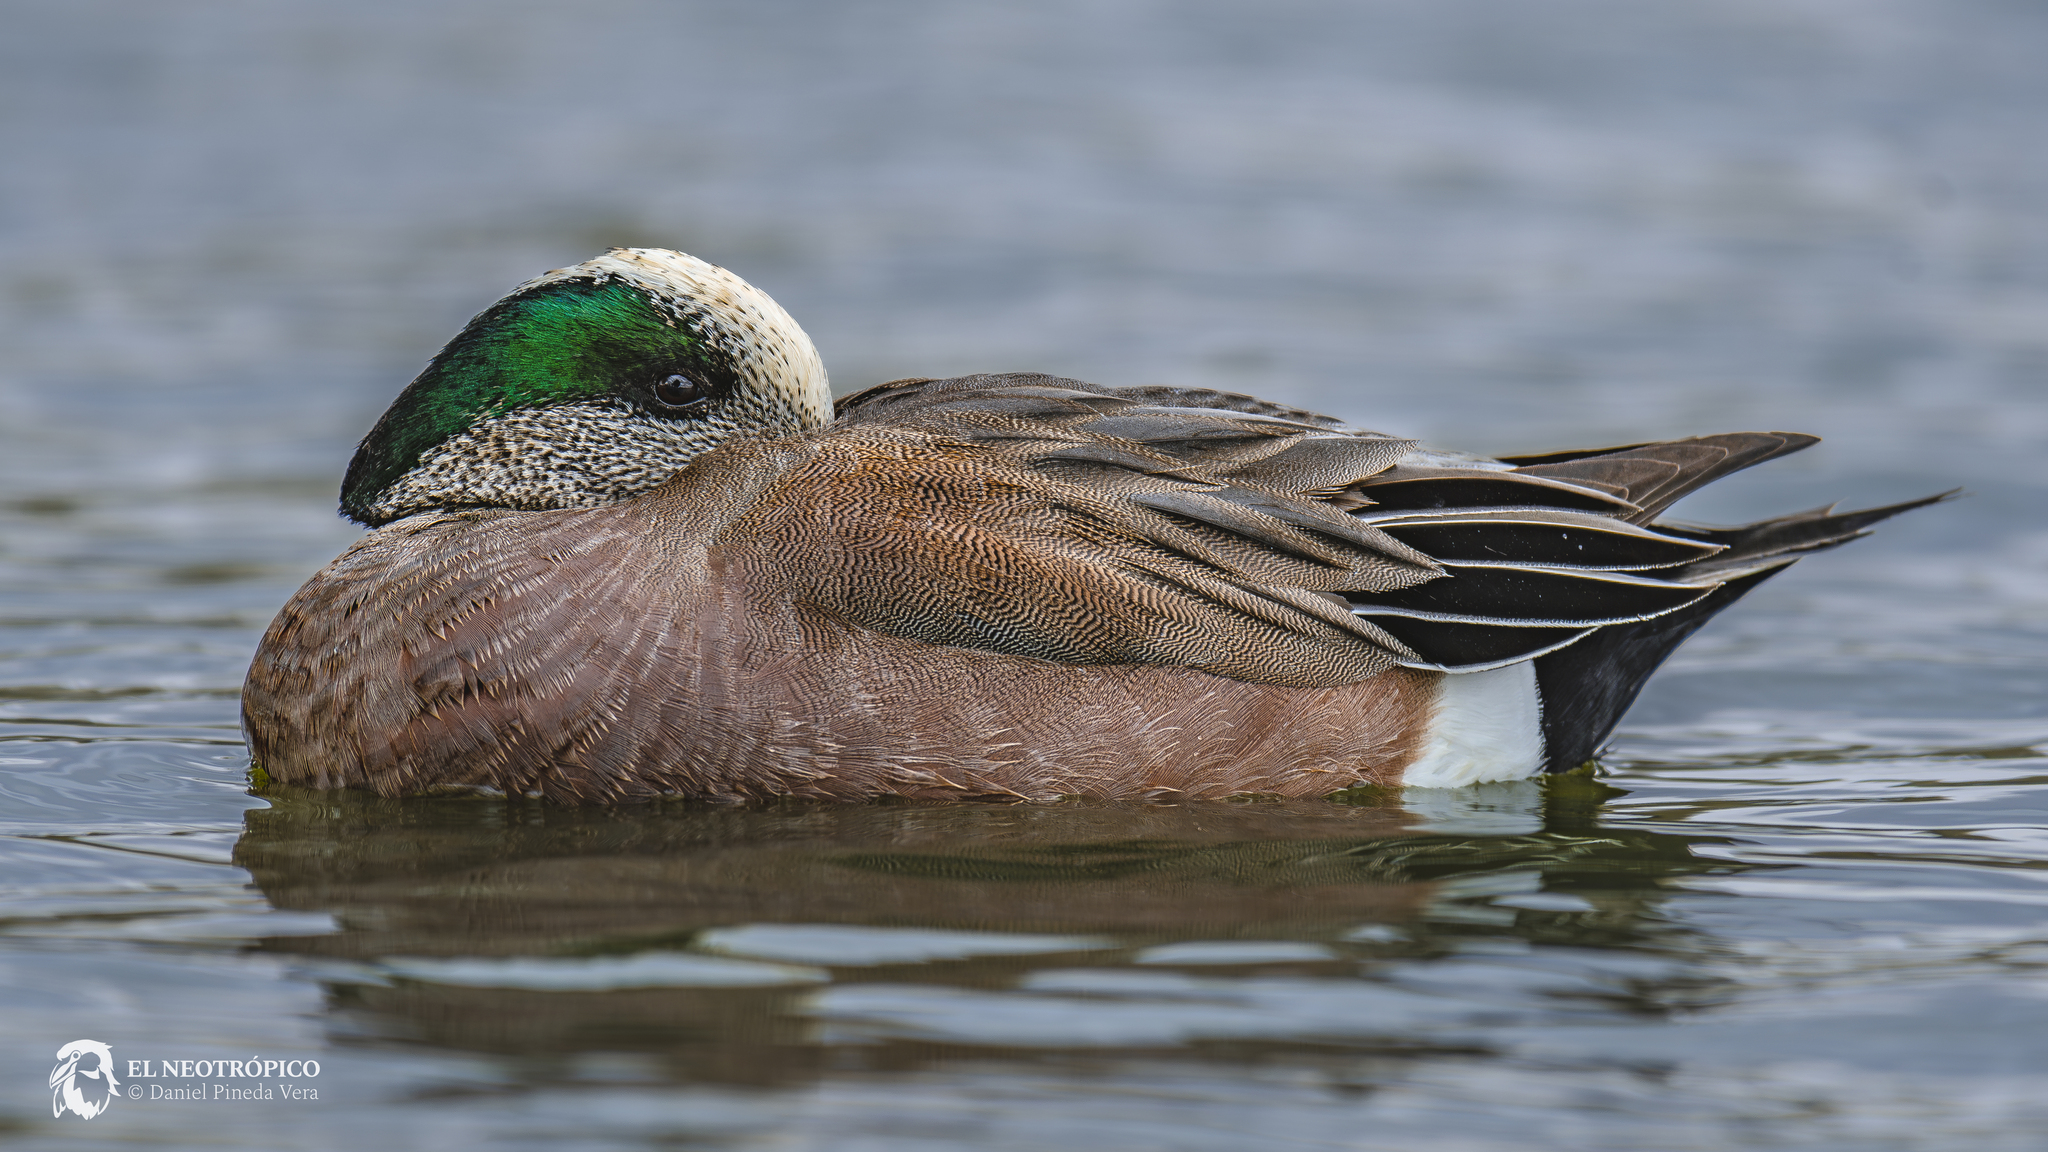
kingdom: Animalia
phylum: Chordata
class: Aves
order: Anseriformes
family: Anatidae
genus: Mareca
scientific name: Mareca americana
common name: American wigeon
